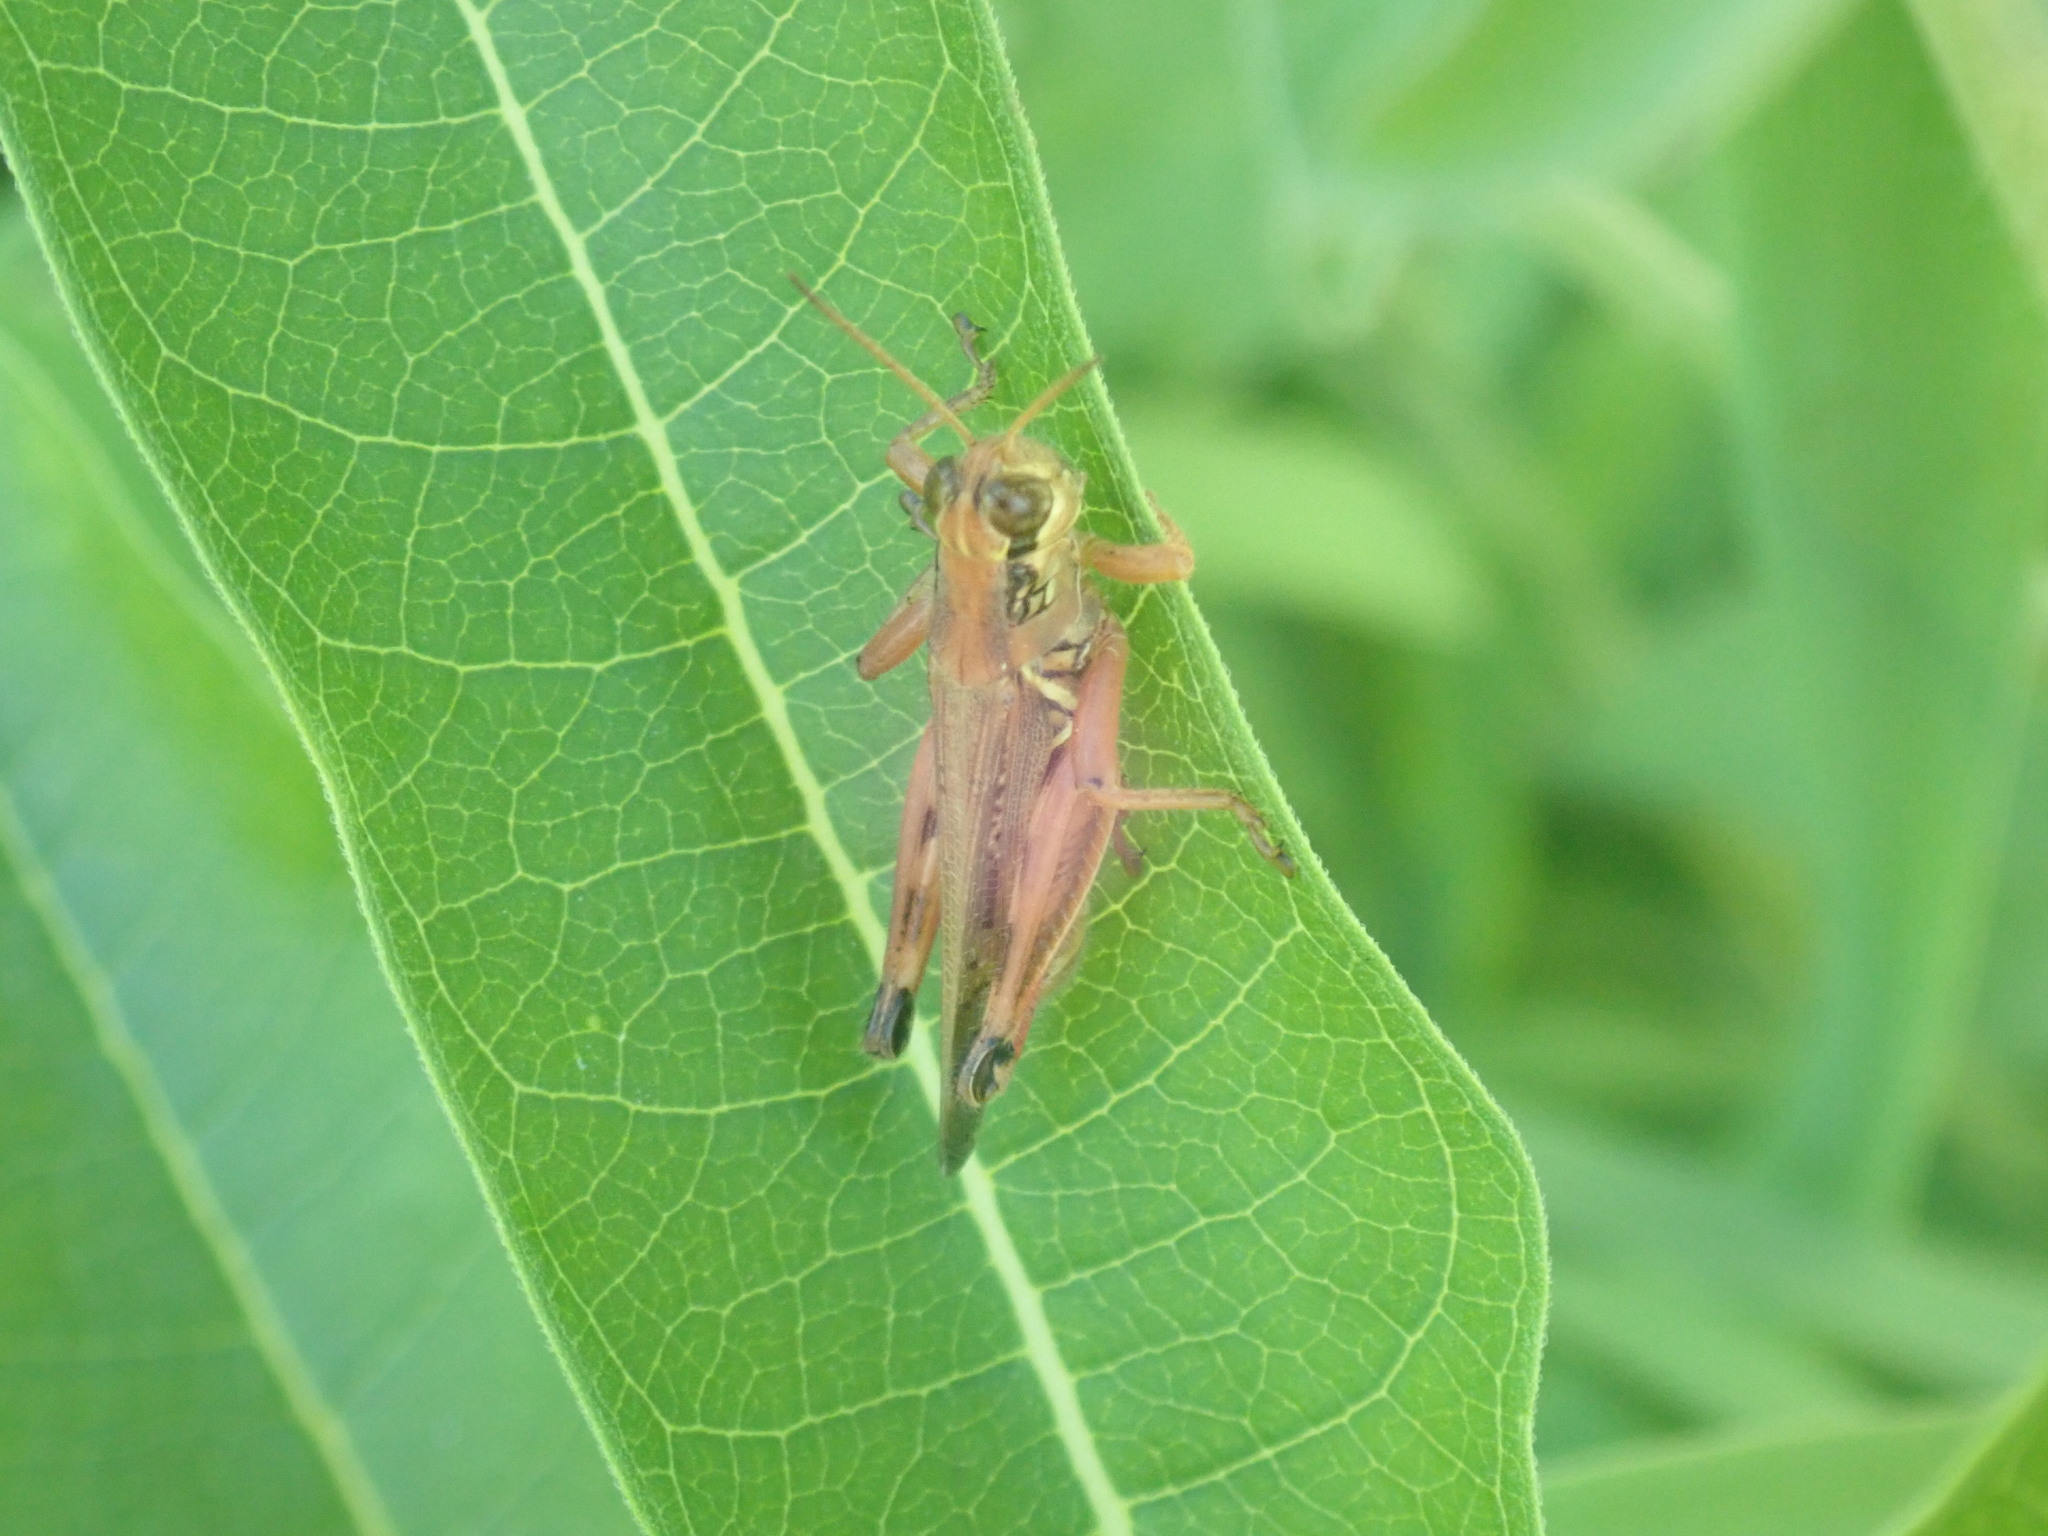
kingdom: Animalia
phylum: Arthropoda
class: Insecta
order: Orthoptera
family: Acrididae
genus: Melanoplus
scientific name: Melanoplus femurrubrum
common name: Red-legged grasshopper
